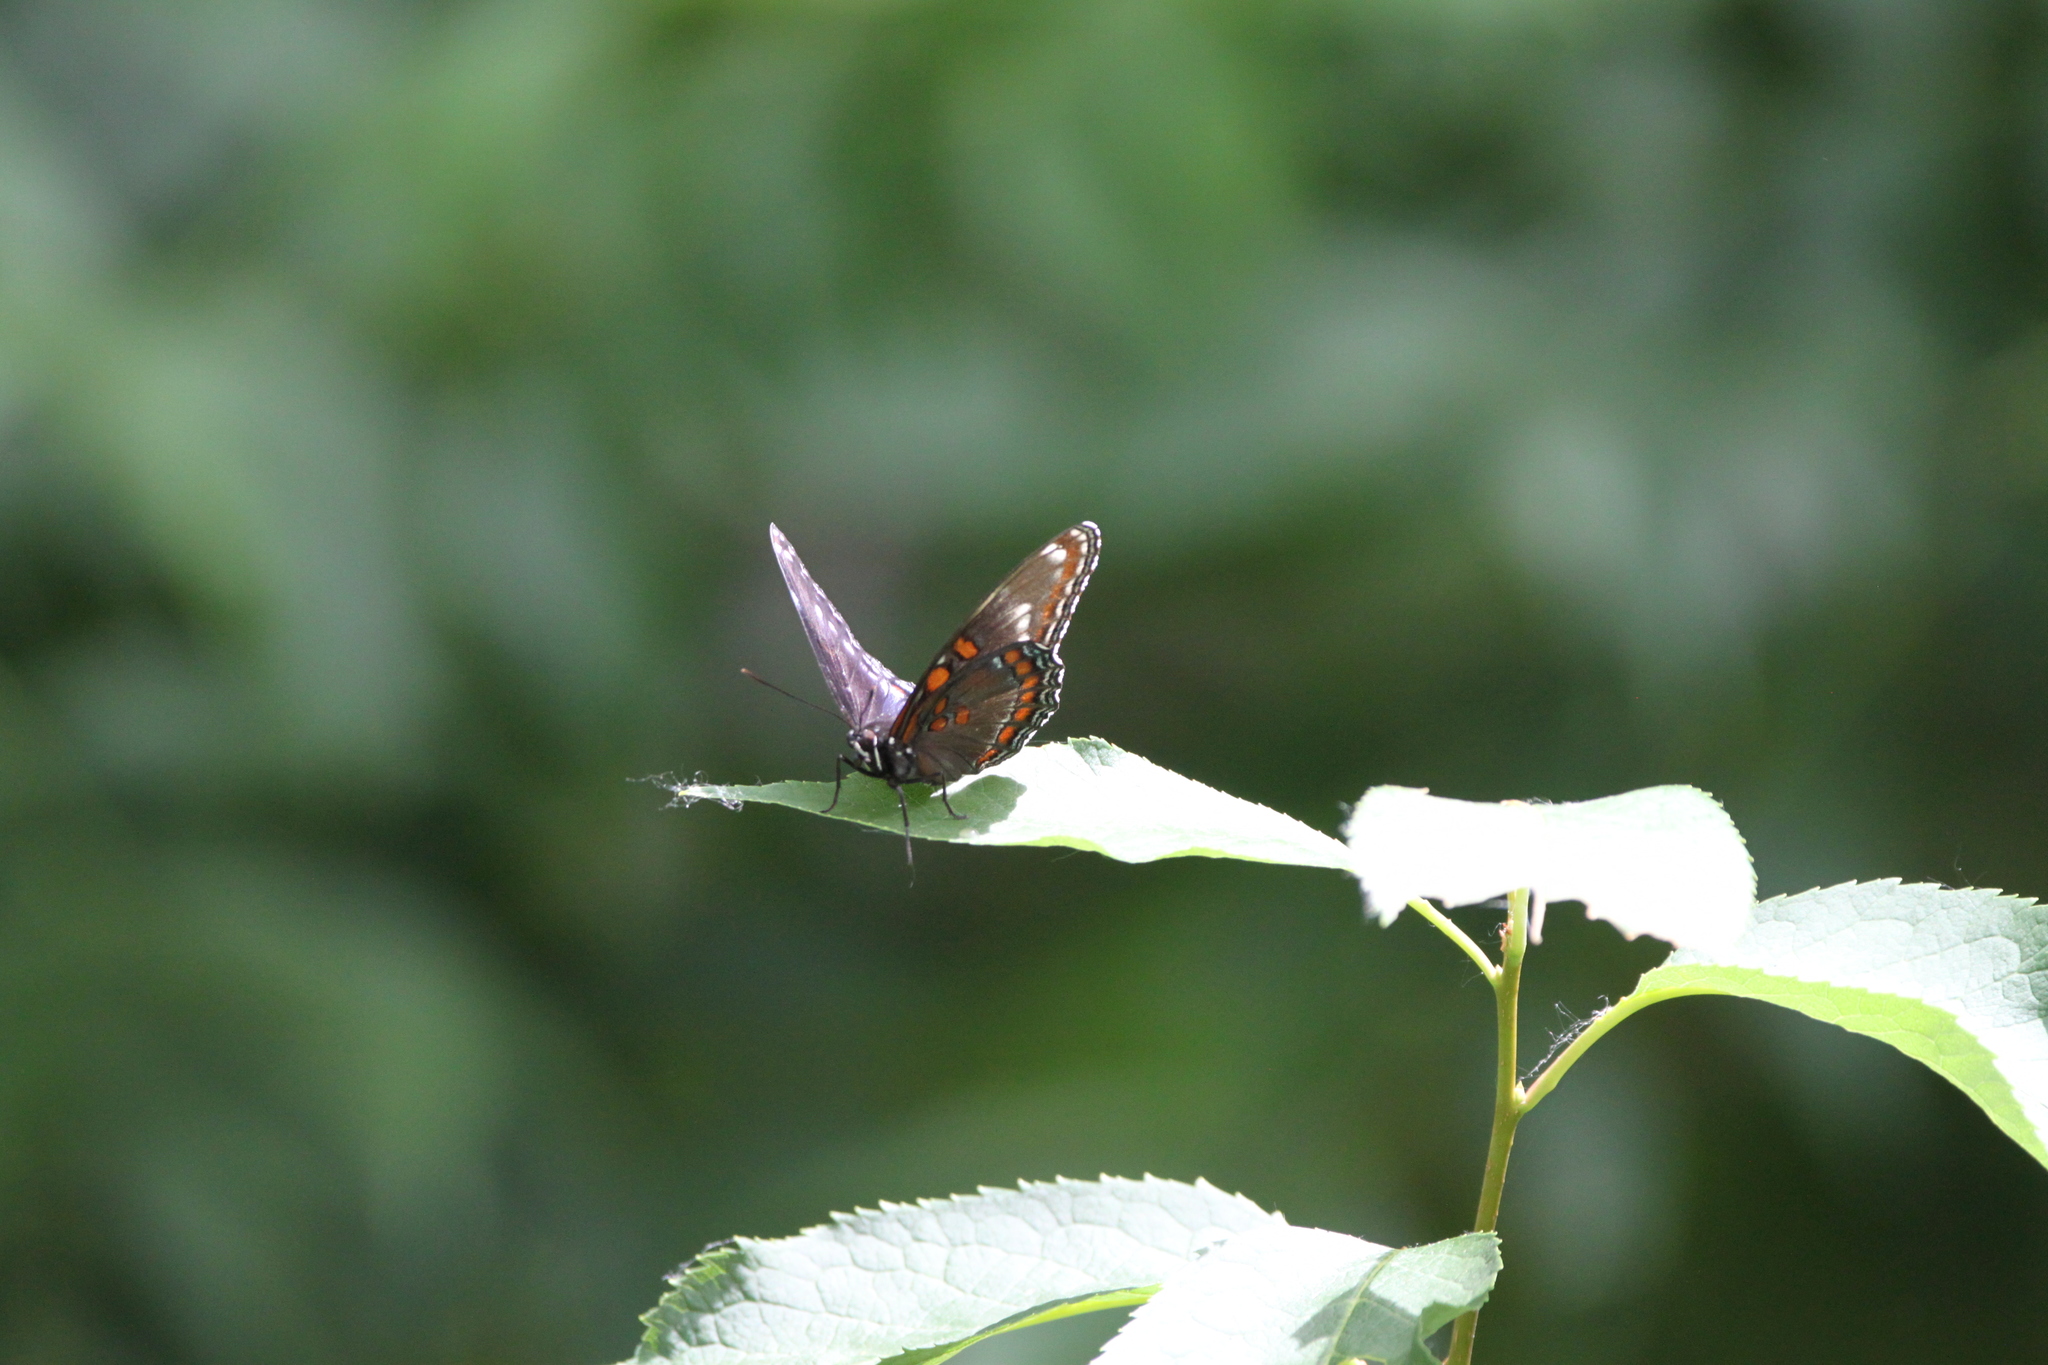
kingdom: Animalia
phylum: Arthropoda
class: Insecta
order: Lepidoptera
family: Nymphalidae
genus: Limenitis
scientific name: Limenitis
